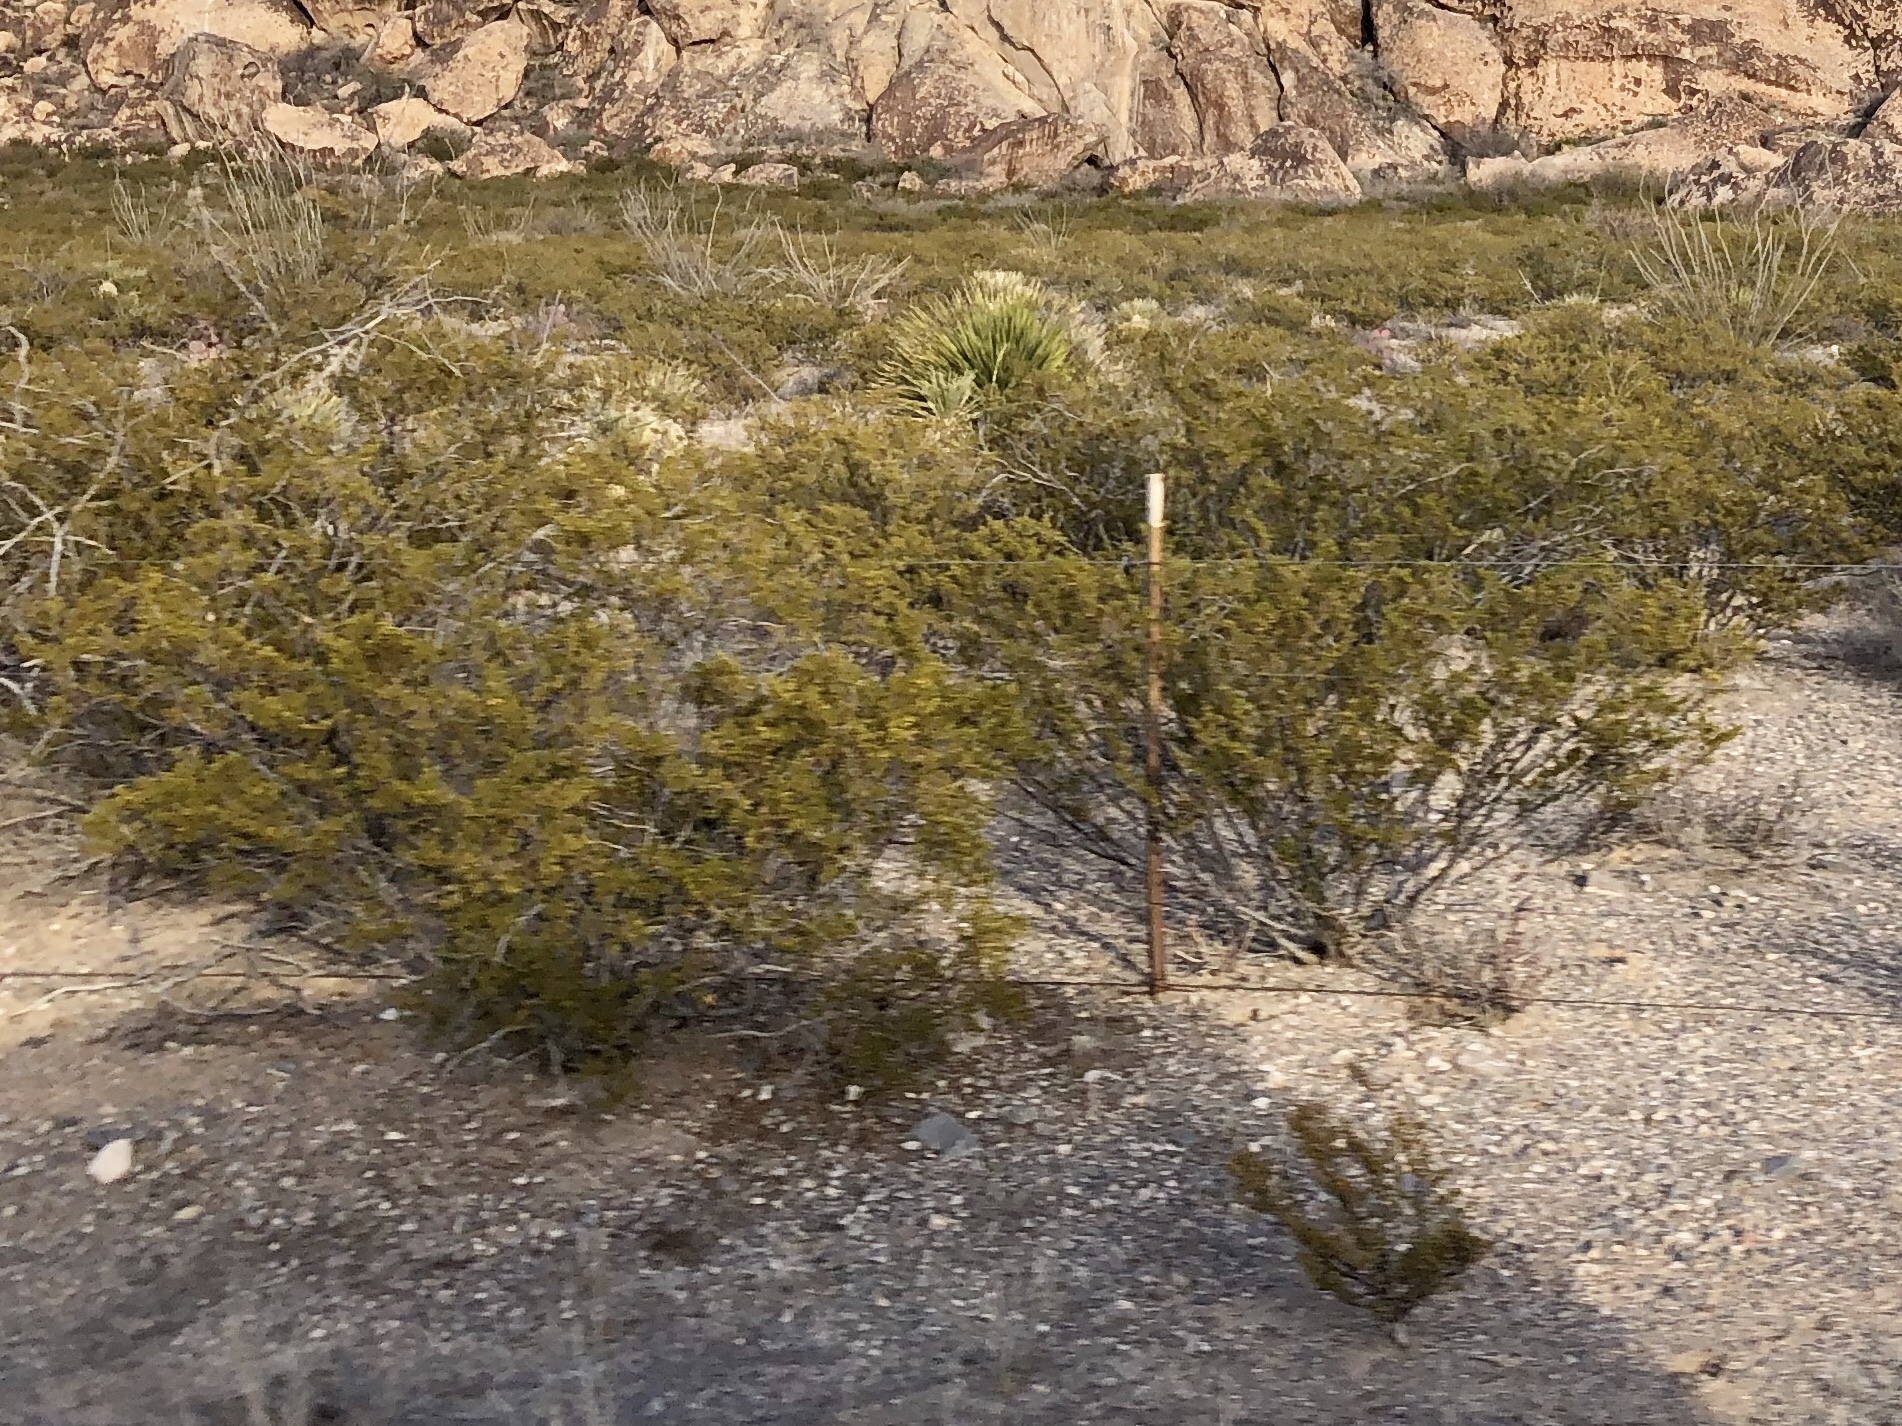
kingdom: Plantae
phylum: Tracheophyta
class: Magnoliopsida
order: Zygophyllales
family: Zygophyllaceae
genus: Larrea
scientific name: Larrea tridentata
